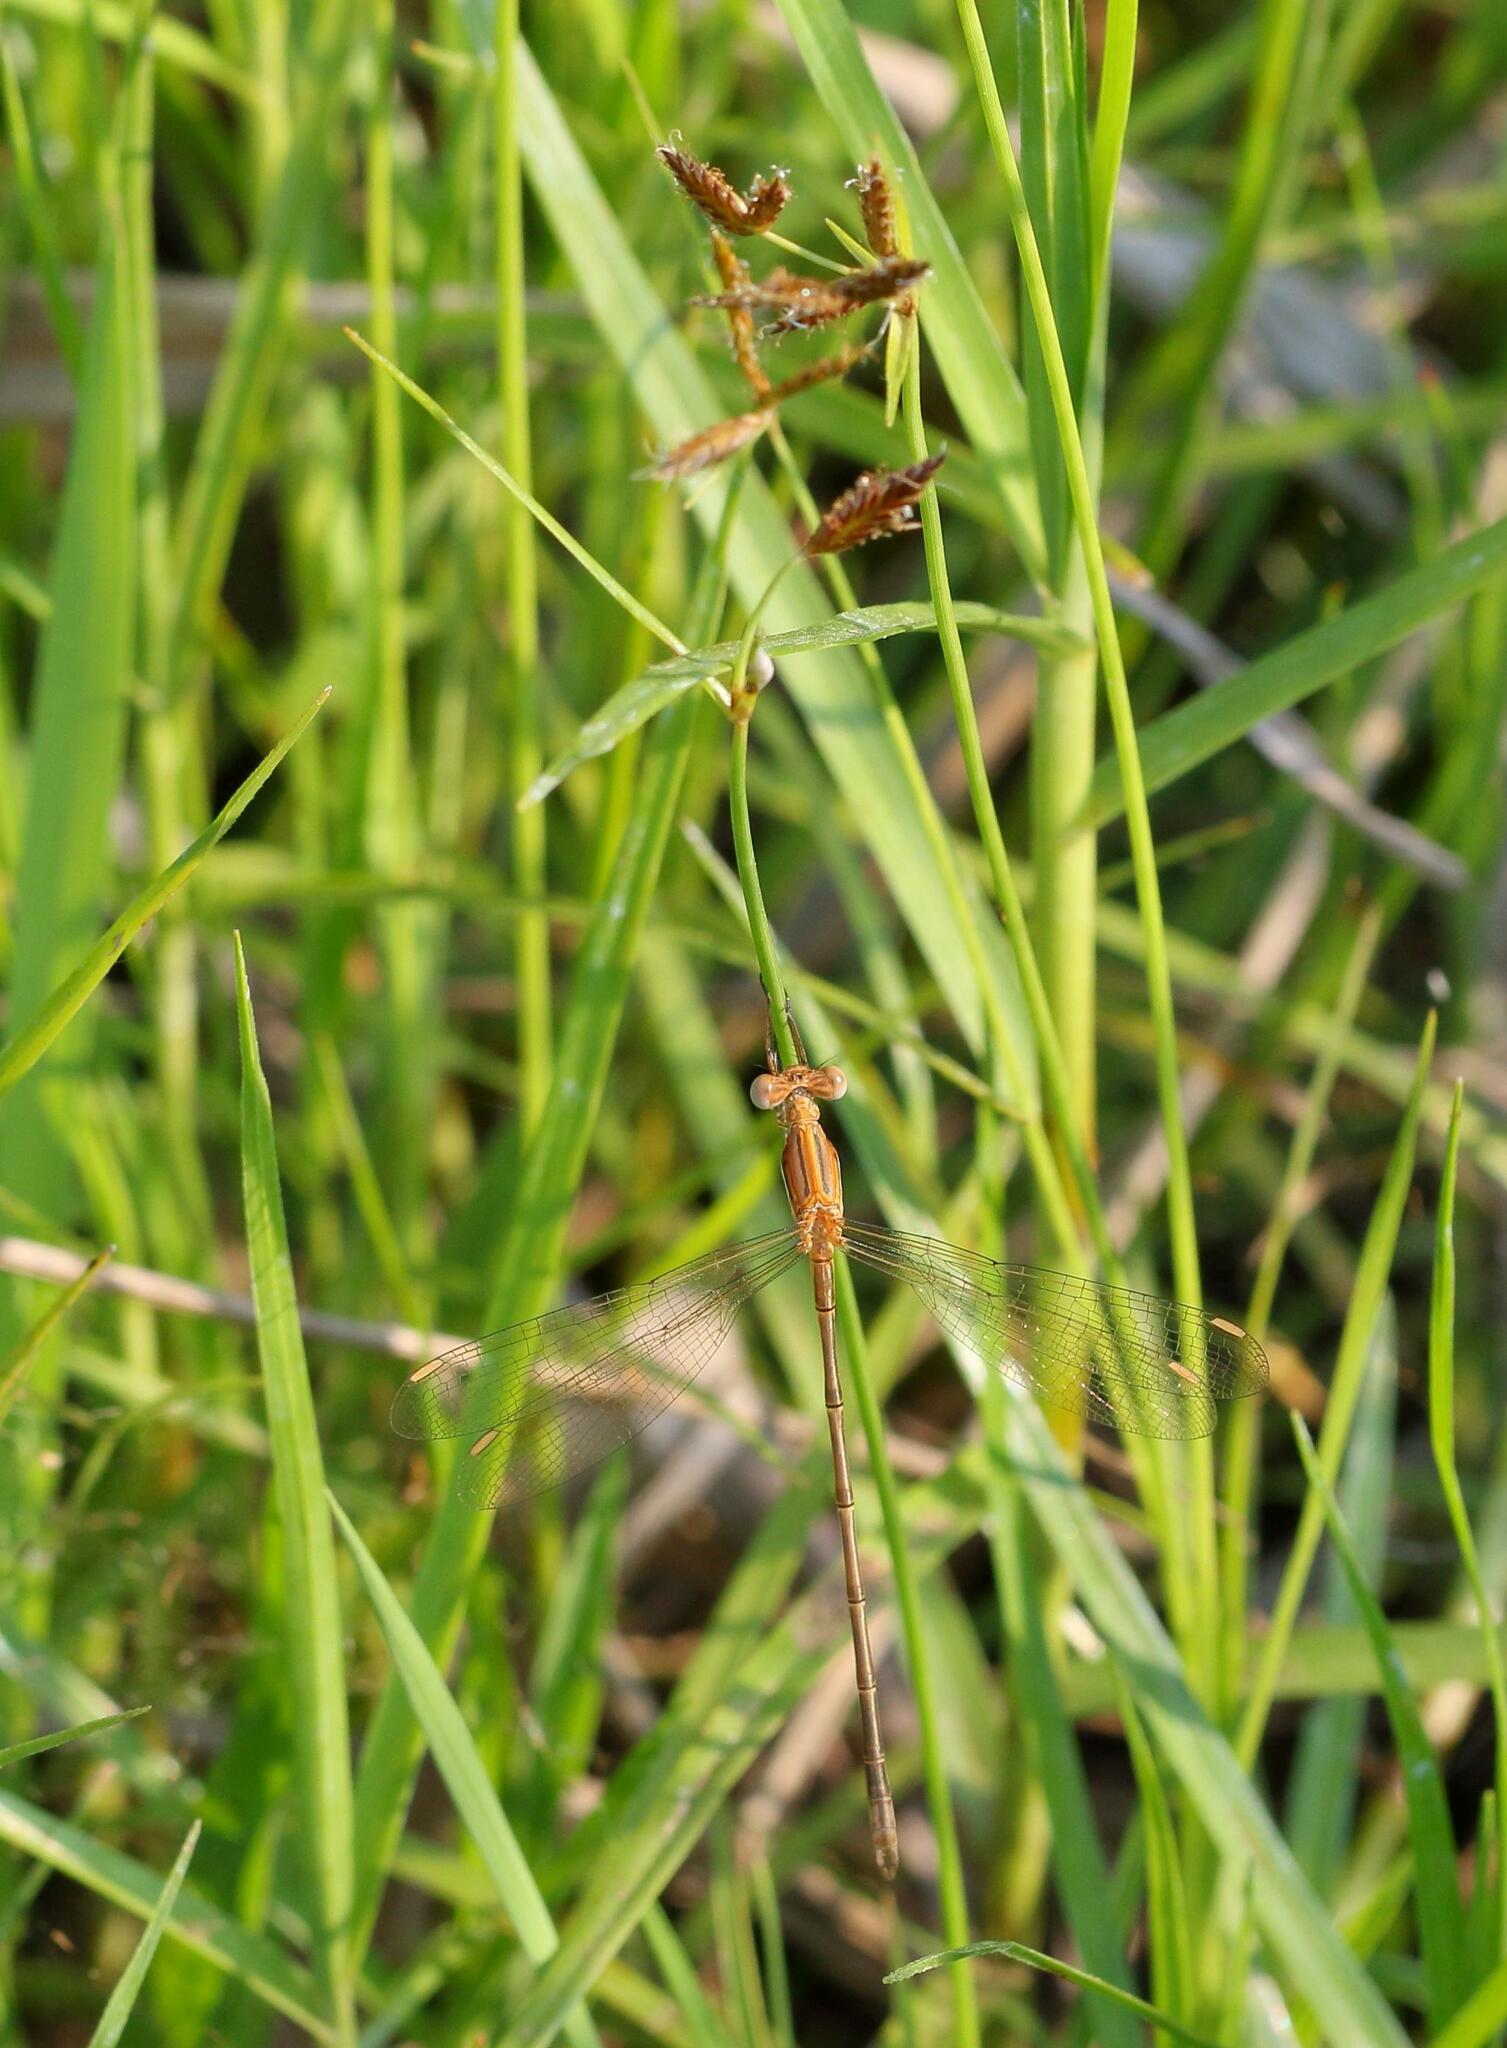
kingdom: Animalia
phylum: Arthropoda
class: Insecta
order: Odonata
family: Lestidae
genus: Lestes
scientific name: Lestes plagiatus
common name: Highland spreadwing
